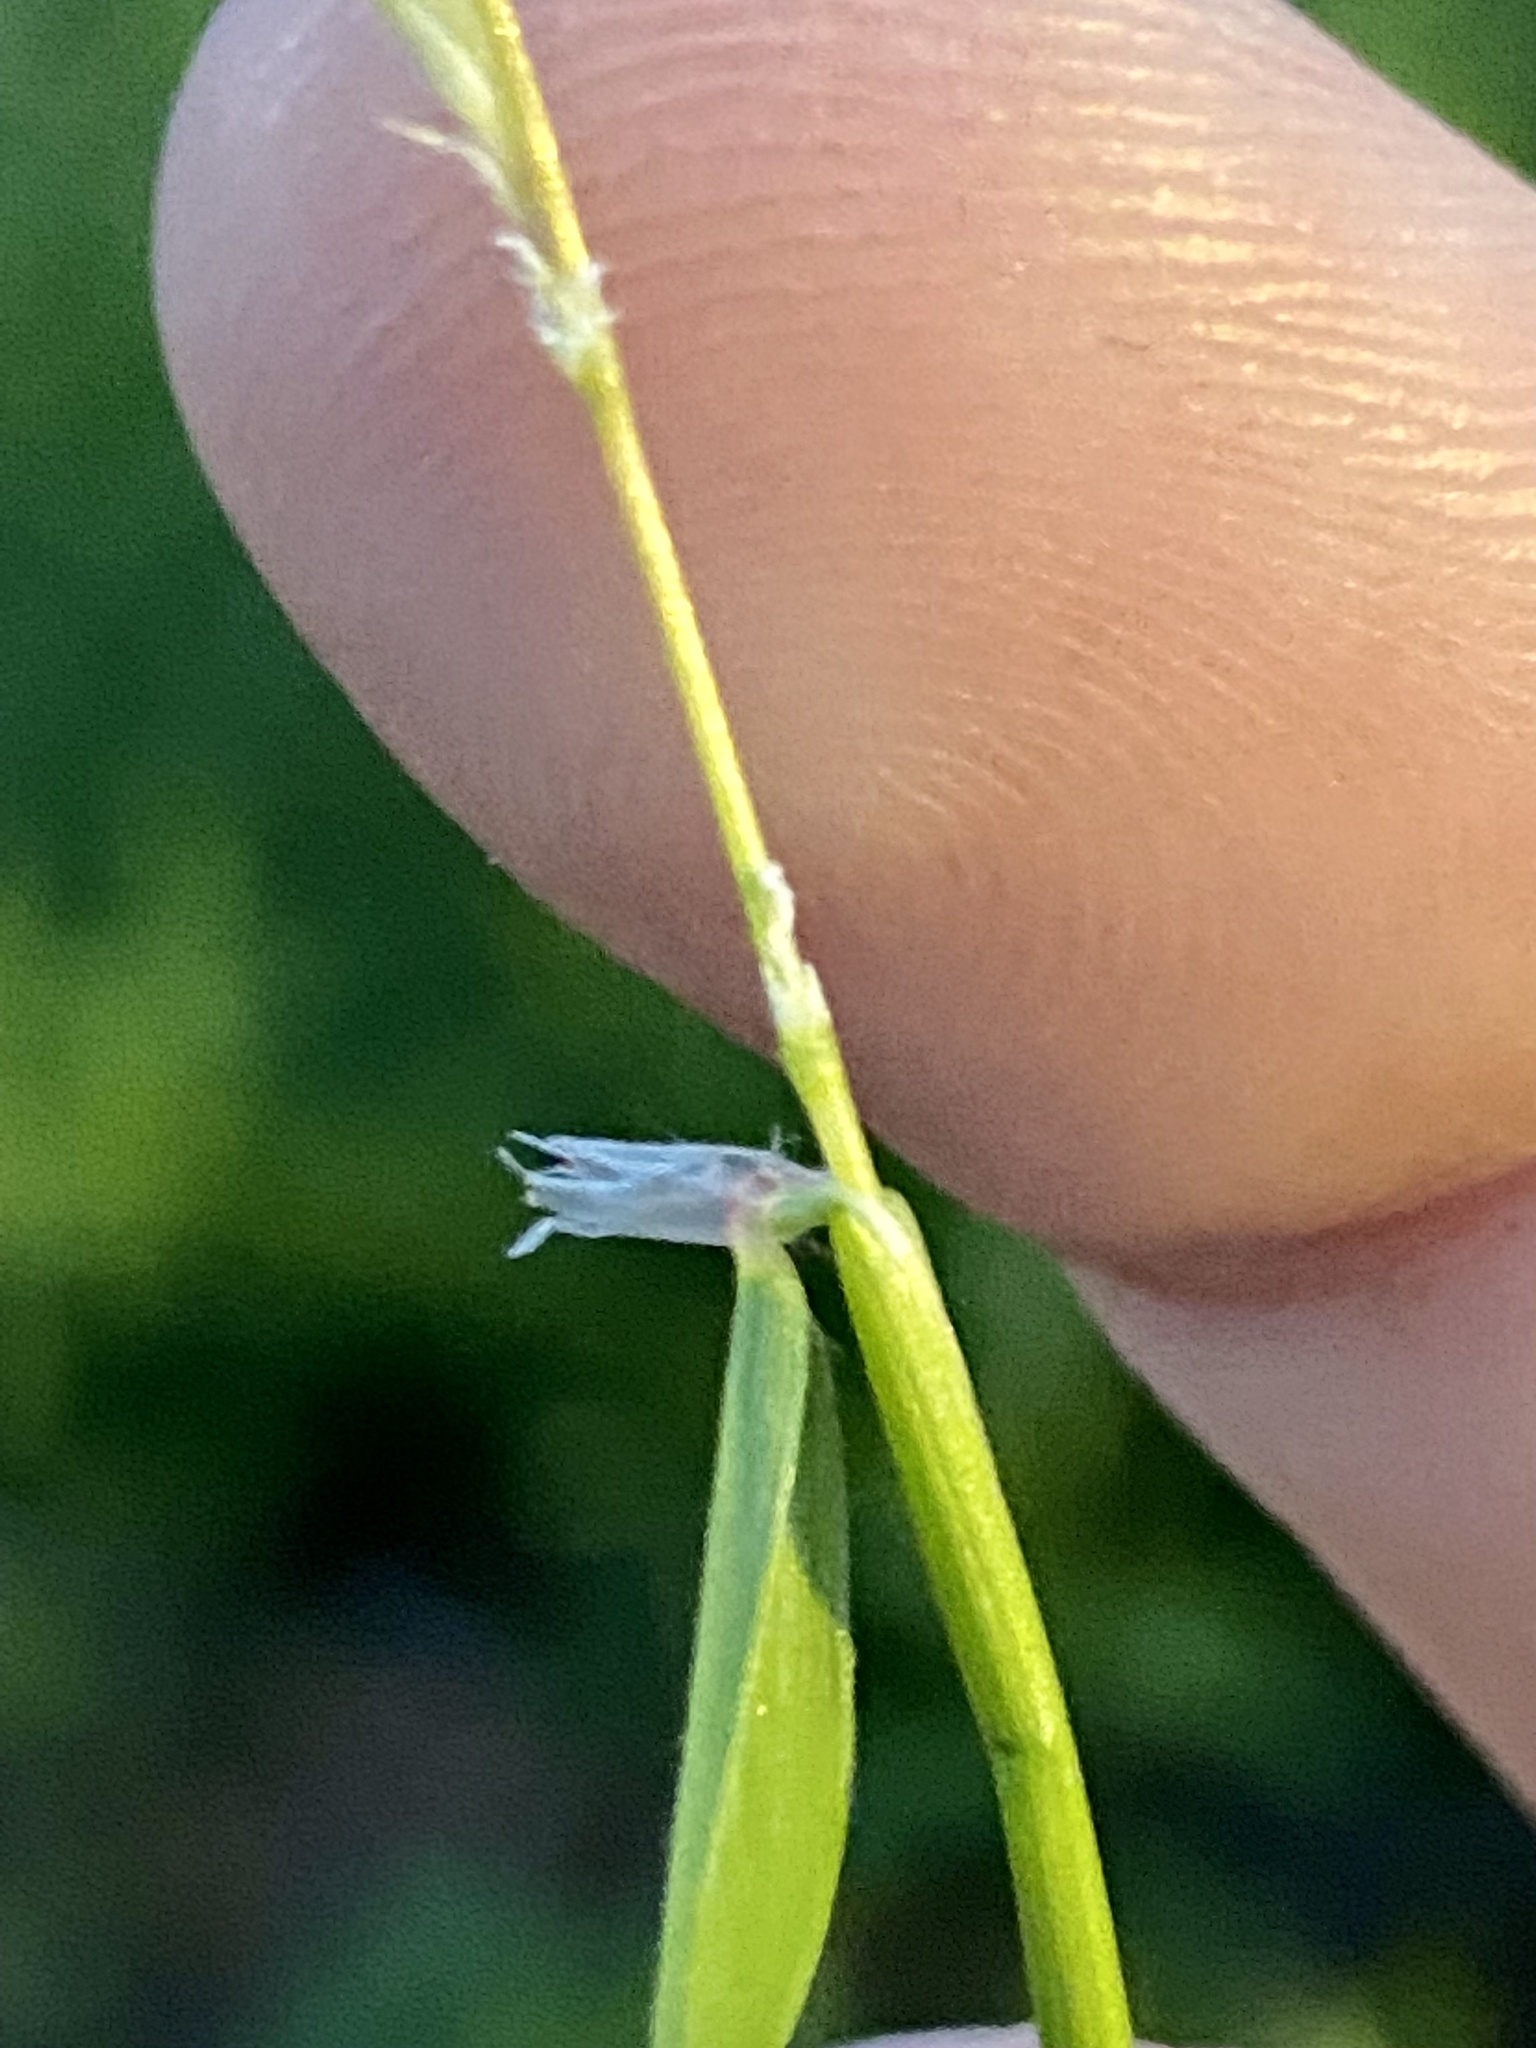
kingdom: Plantae
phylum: Tracheophyta
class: Liliopsida
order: Poales
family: Poaceae
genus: Anthoxanthum
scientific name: Anthoxanthum odoratum
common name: Sweet vernalgrass
